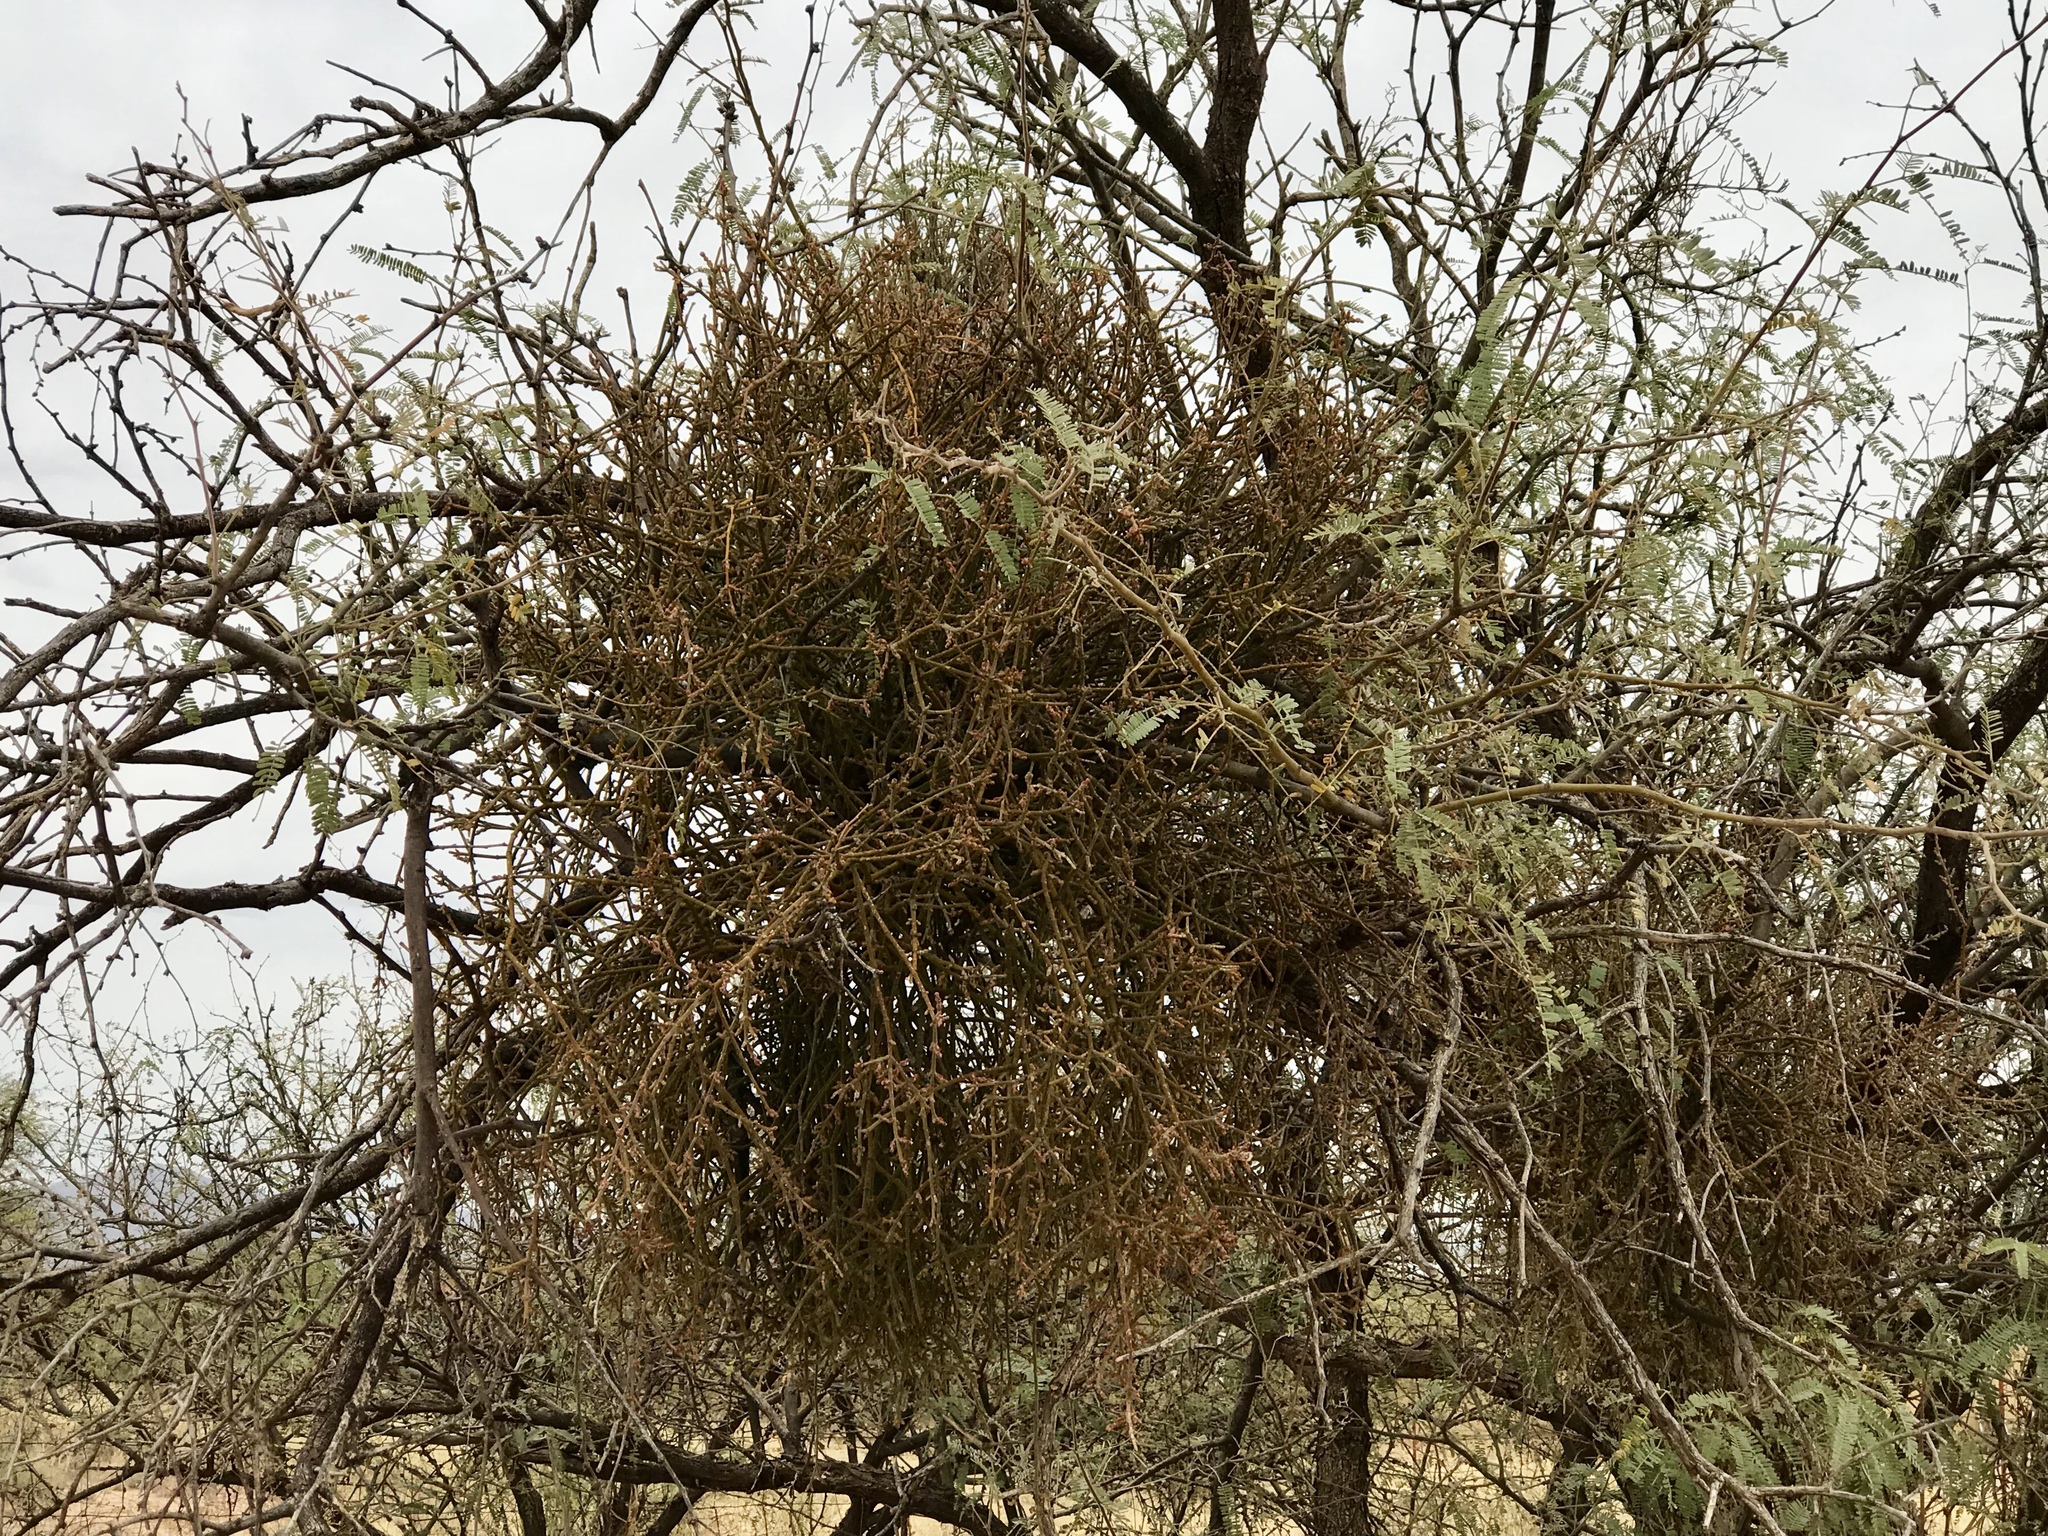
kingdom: Plantae
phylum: Tracheophyta
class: Magnoliopsida
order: Santalales
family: Viscaceae
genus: Phoradendron
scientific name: Phoradendron californicum
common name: Acacia mistletoe
